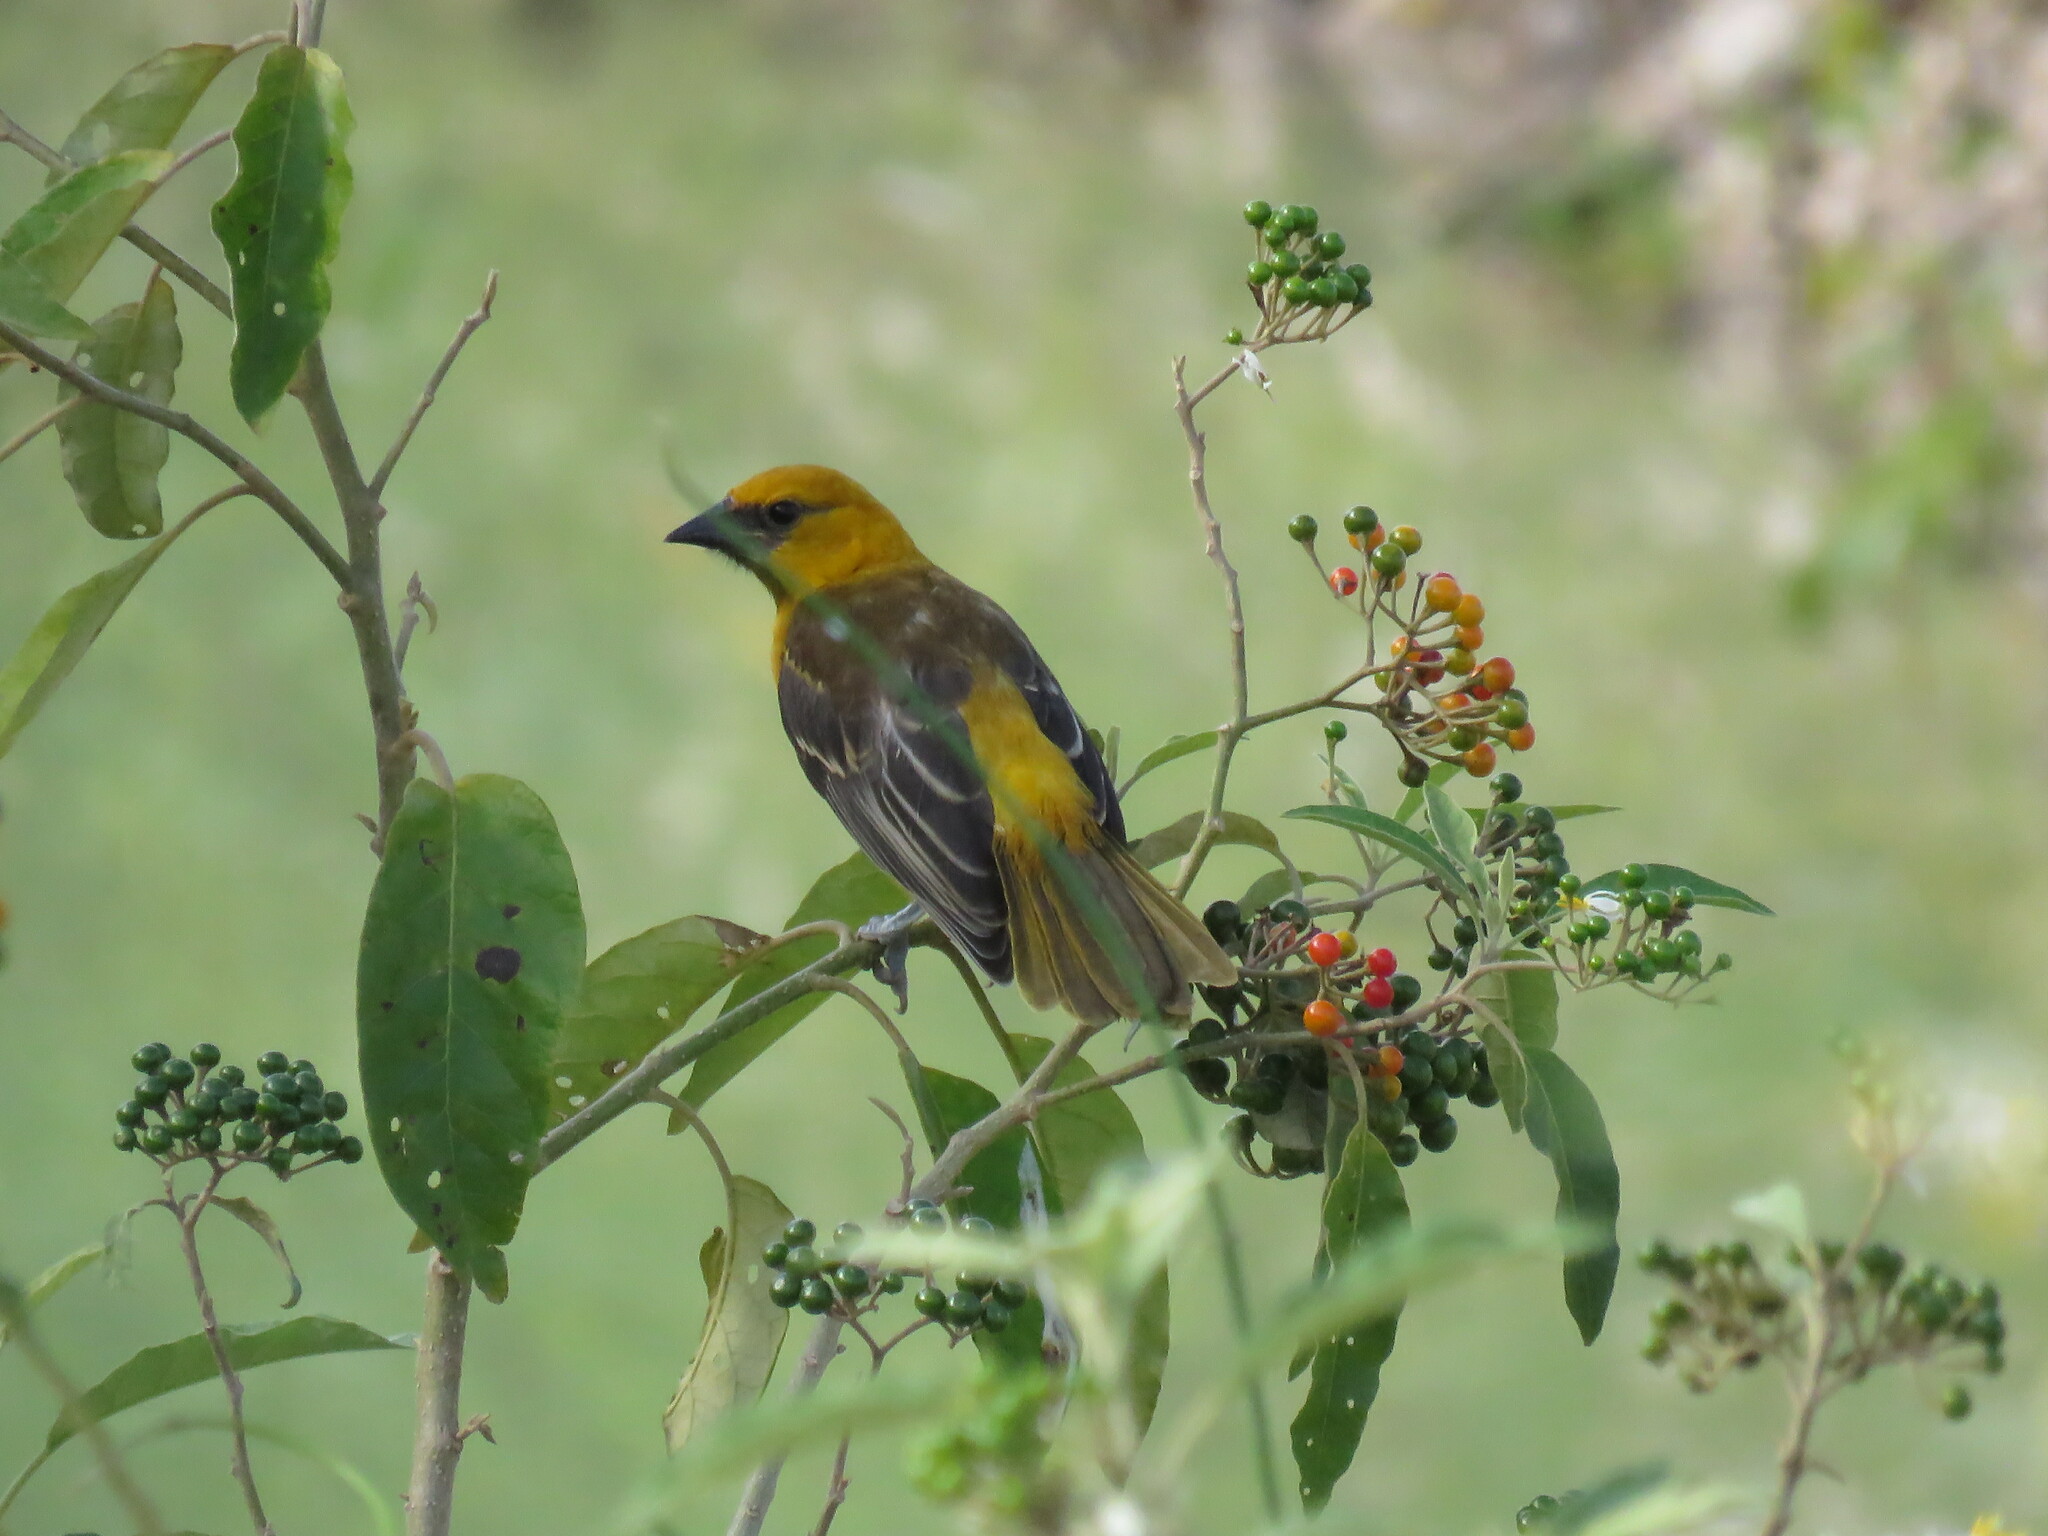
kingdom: Animalia
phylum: Chordata
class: Aves
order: Passeriformes
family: Icteridae
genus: Icterus
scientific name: Icterus gularis
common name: Altamira oriole
